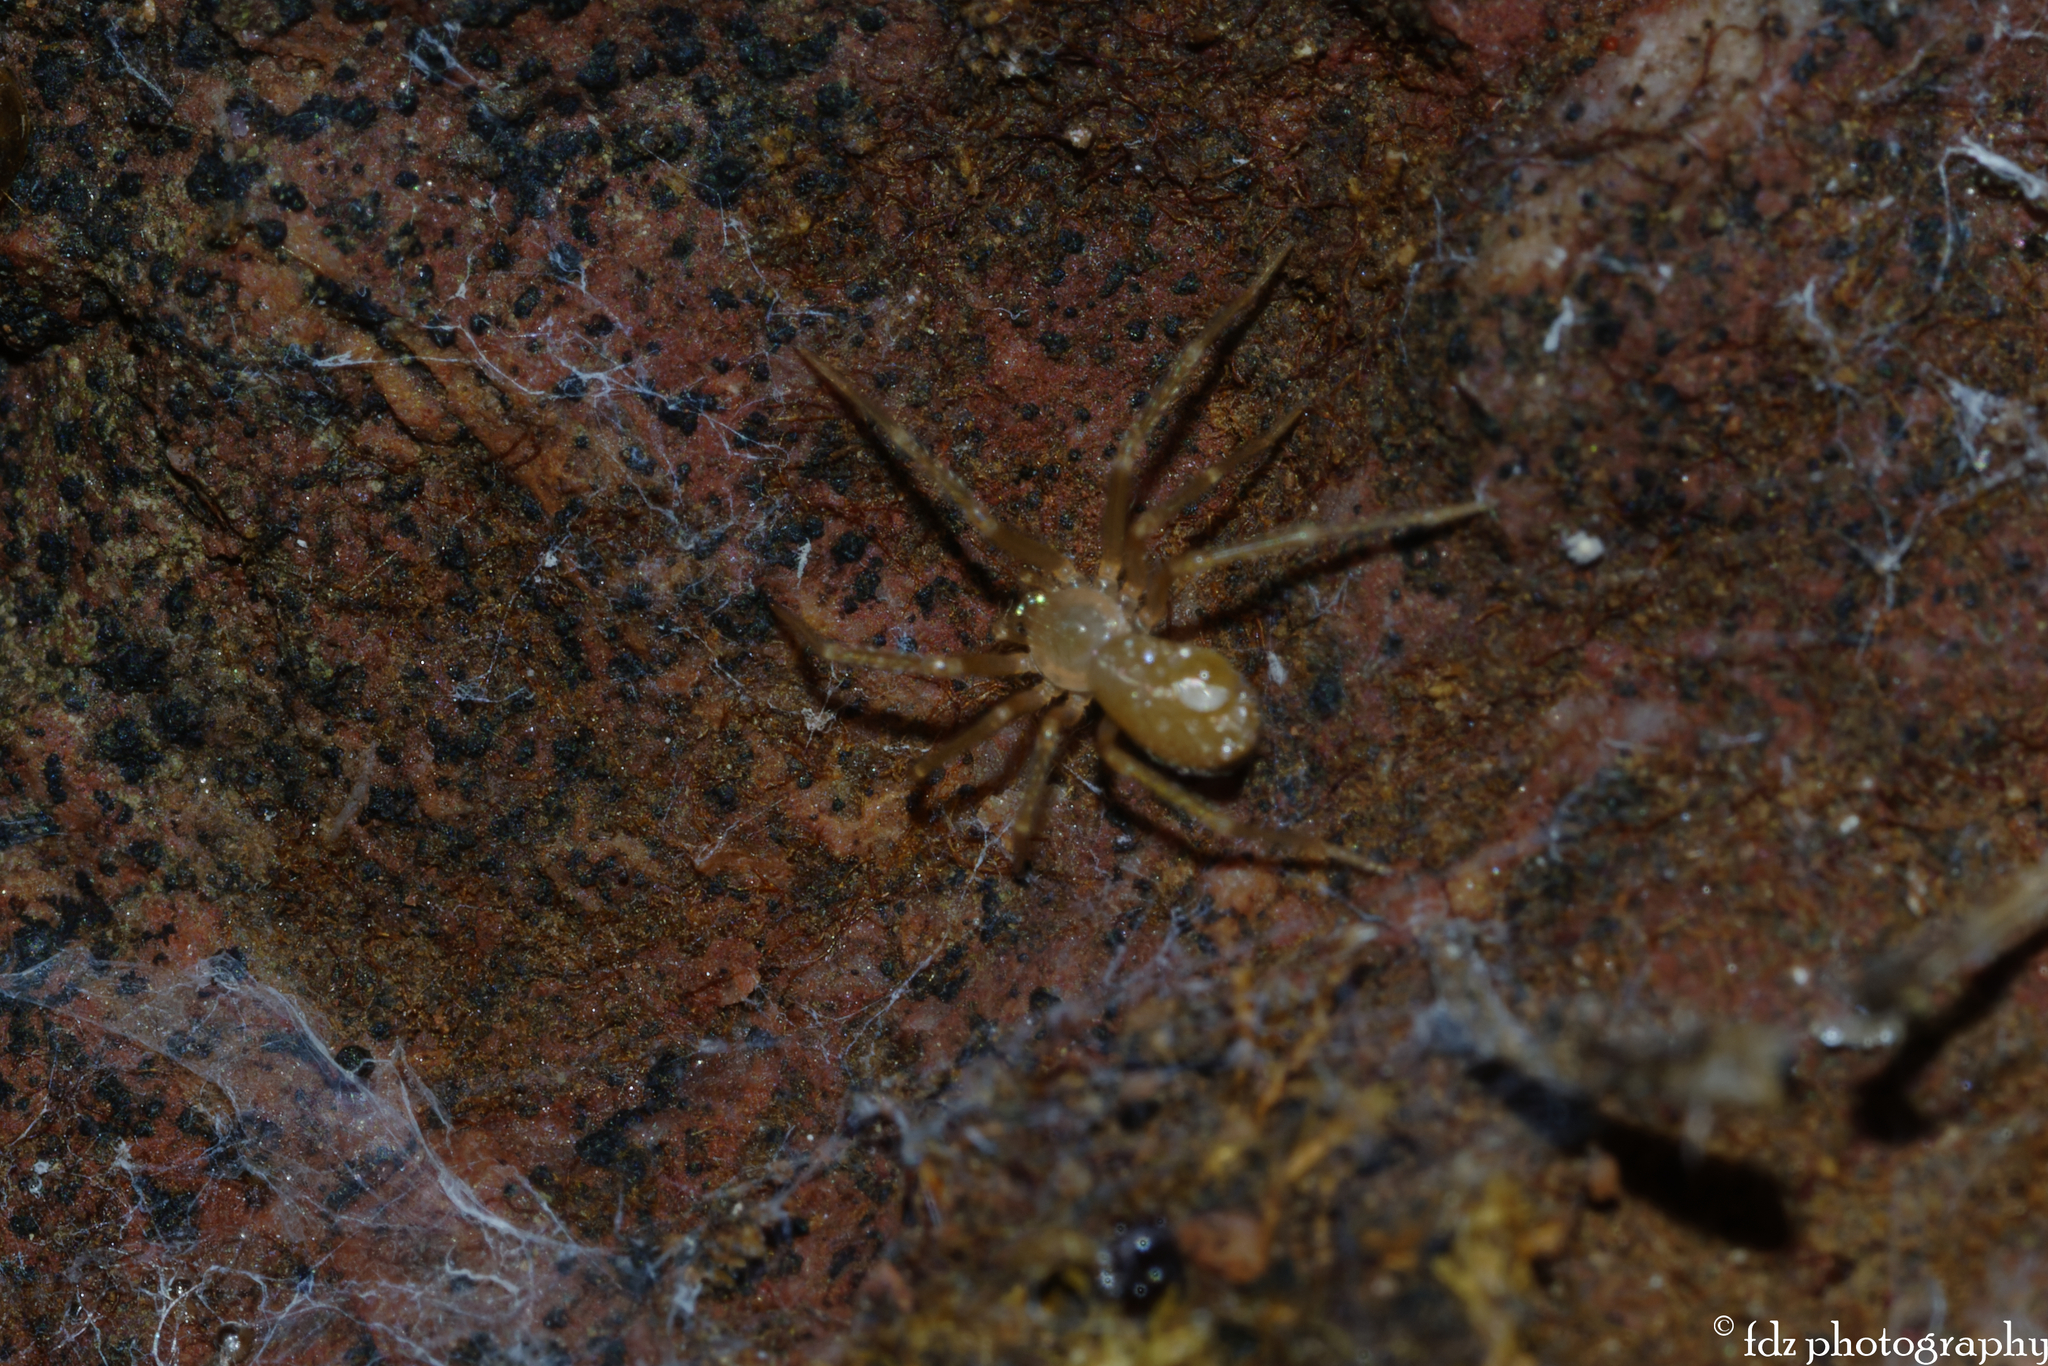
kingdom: Animalia
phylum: Arthropoda
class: Arachnida
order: Araneae
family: Sicariidae
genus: Loxosceles
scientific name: Loxosceles rufescens
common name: Mediterranean recluse spider
